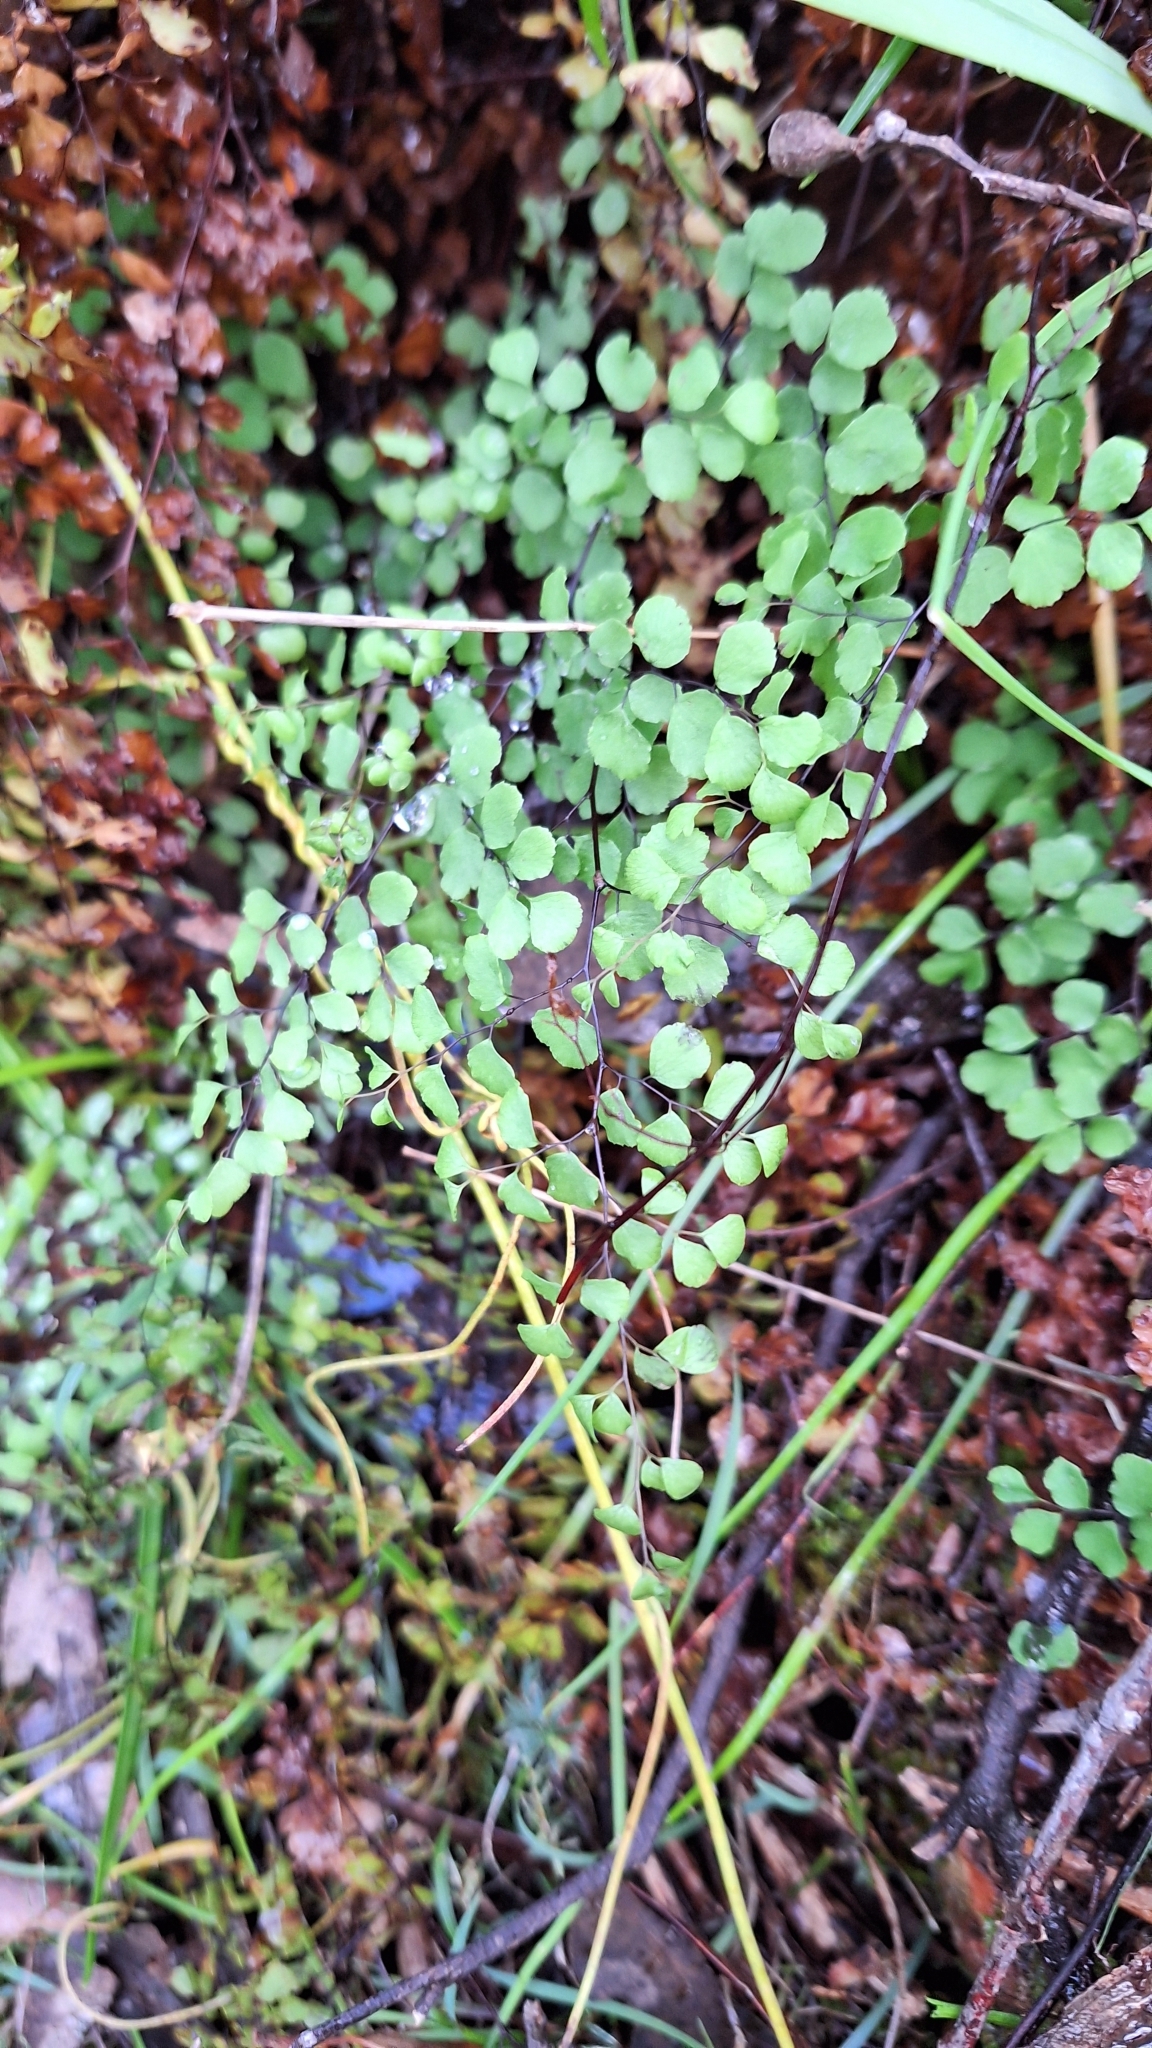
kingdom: Plantae
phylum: Tracheophyta
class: Polypodiopsida
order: Polypodiales
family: Pteridaceae
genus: Adiantum
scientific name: Adiantum aethiopicum
